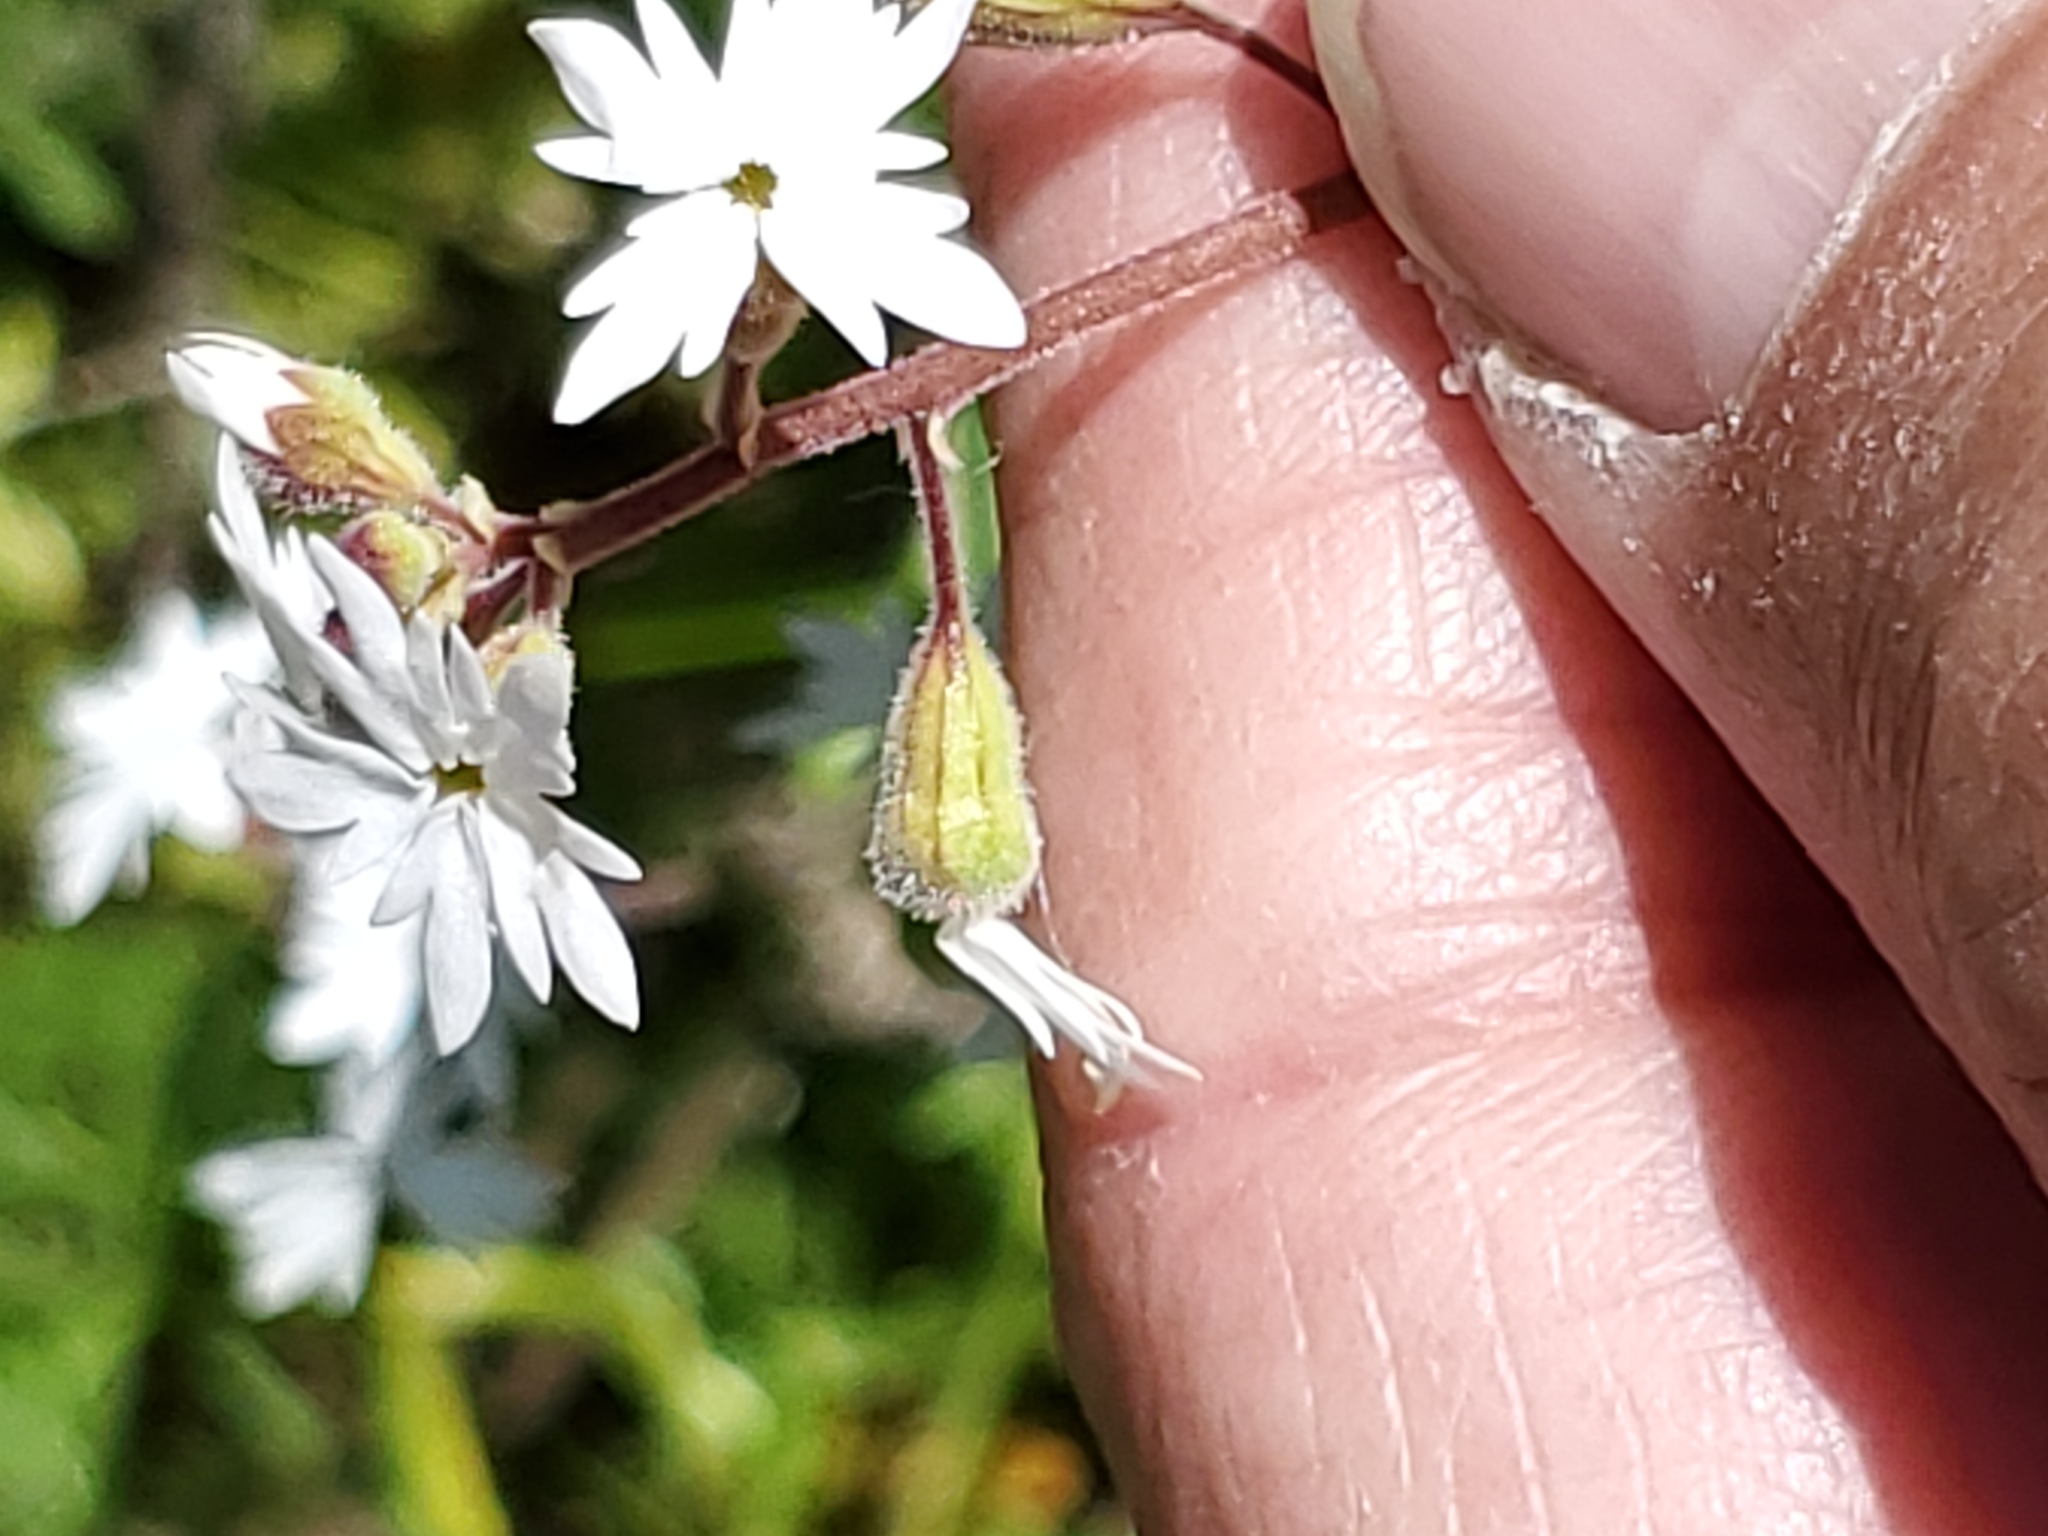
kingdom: Plantae
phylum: Tracheophyta
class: Magnoliopsida
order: Saxifragales
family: Saxifragaceae
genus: Lithophragma
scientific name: Lithophragma parviflorum
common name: Small-flowered fringe-cup
